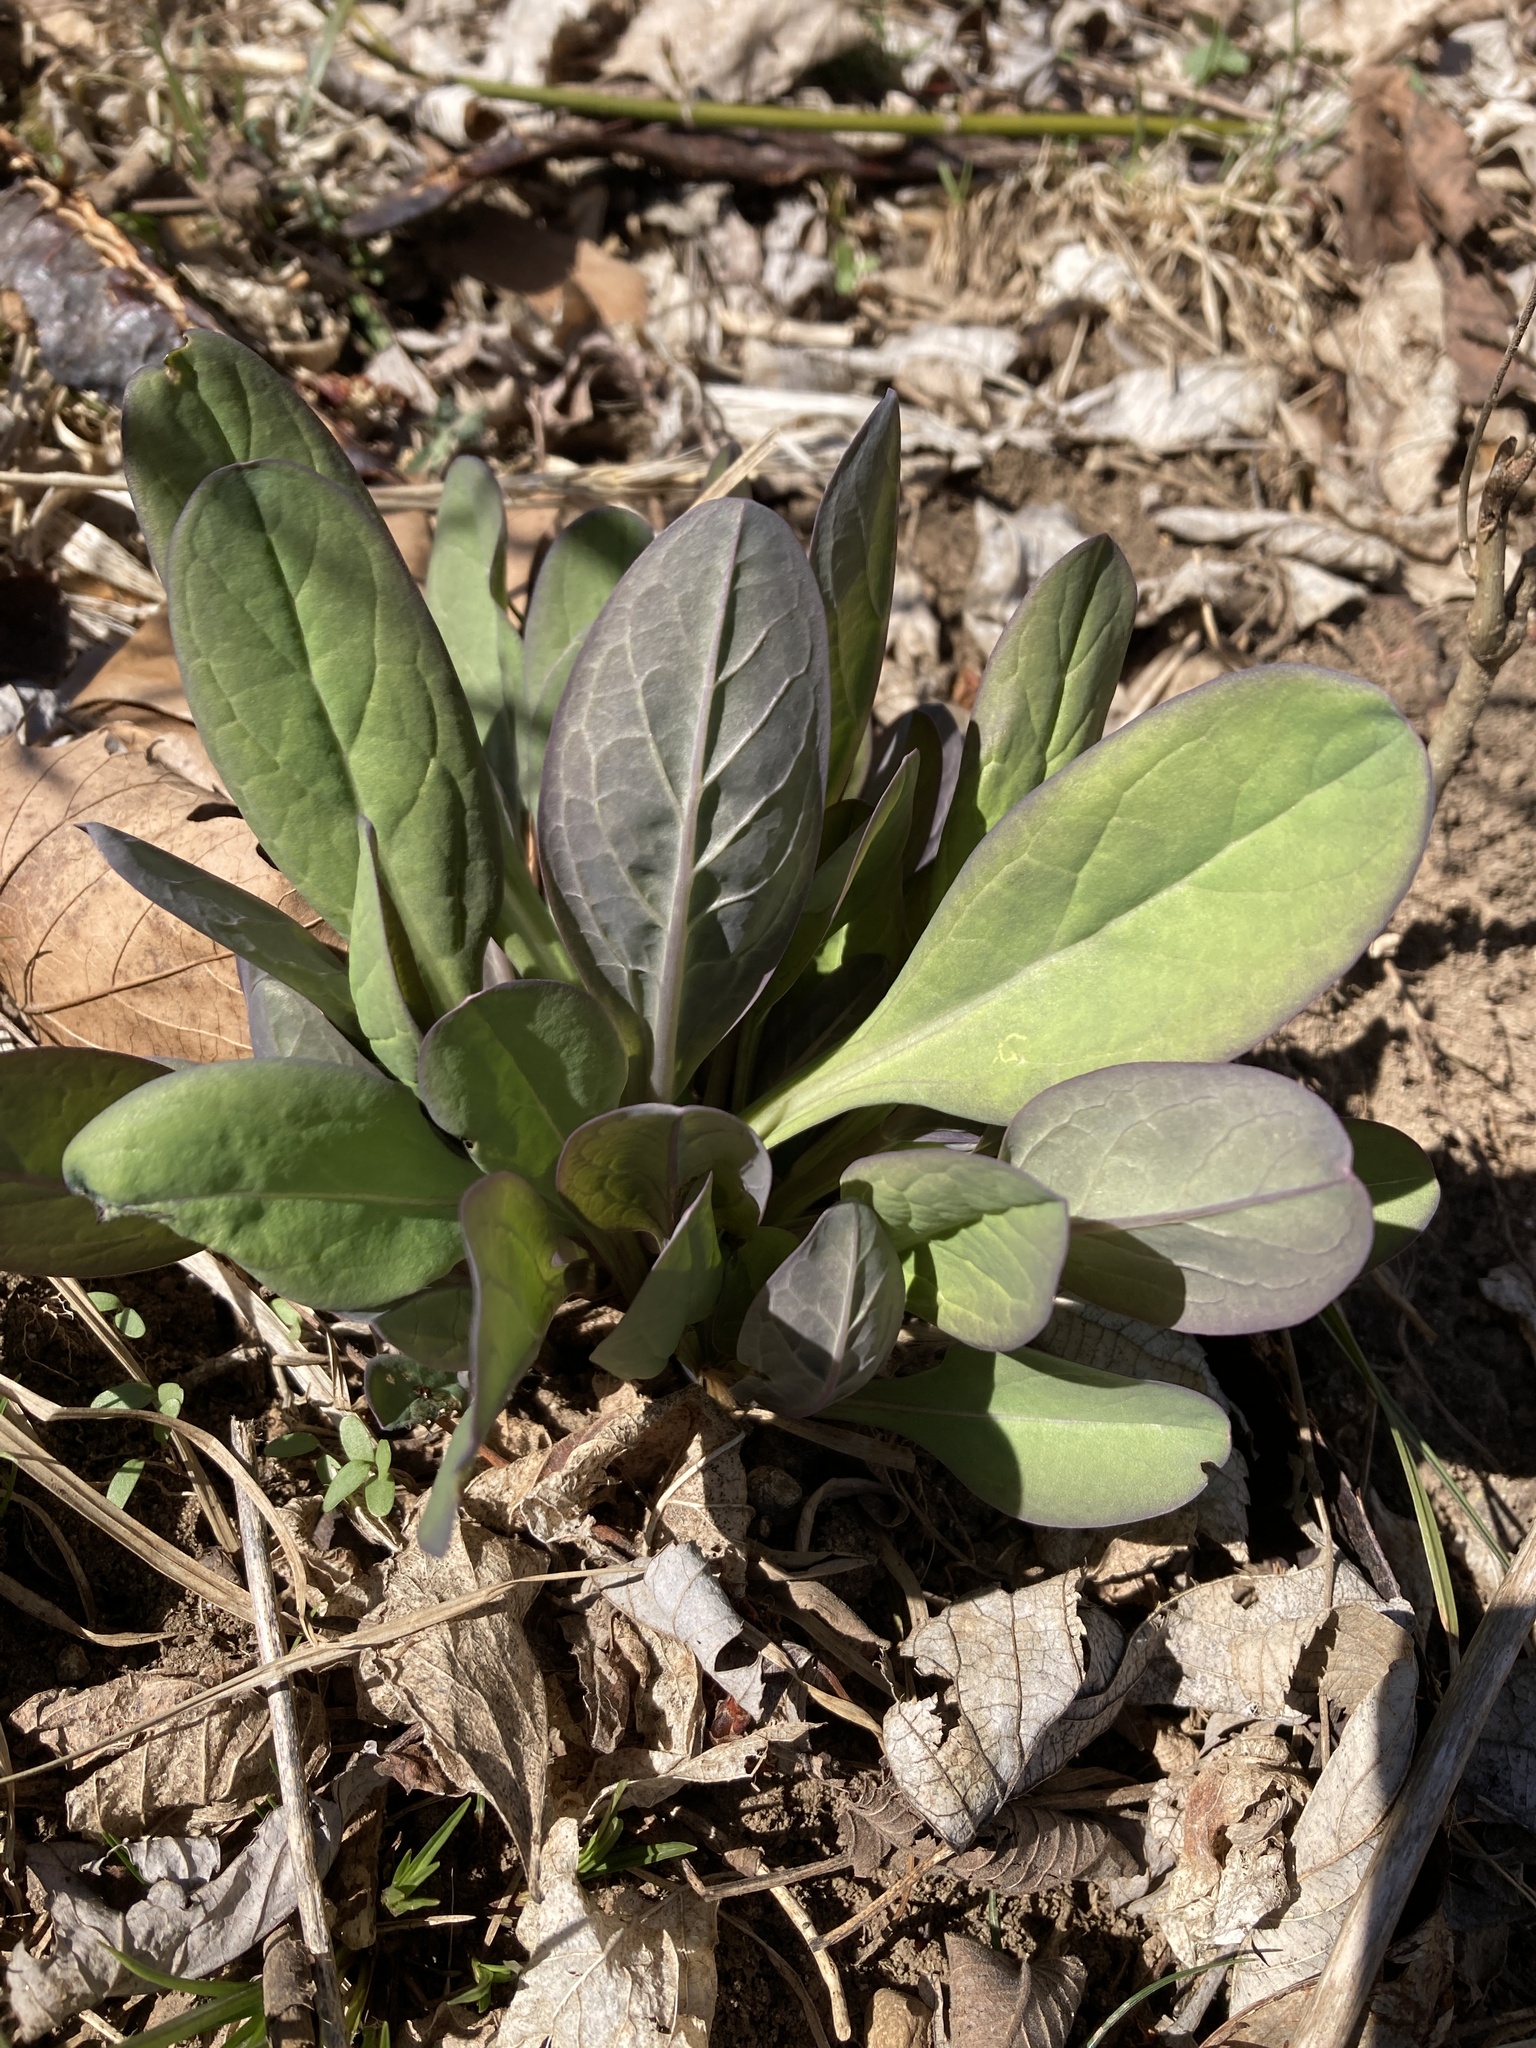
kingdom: Plantae
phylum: Tracheophyta
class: Magnoliopsida
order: Boraginales
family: Boraginaceae
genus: Mertensia
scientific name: Mertensia virginica
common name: Virginia bluebells
